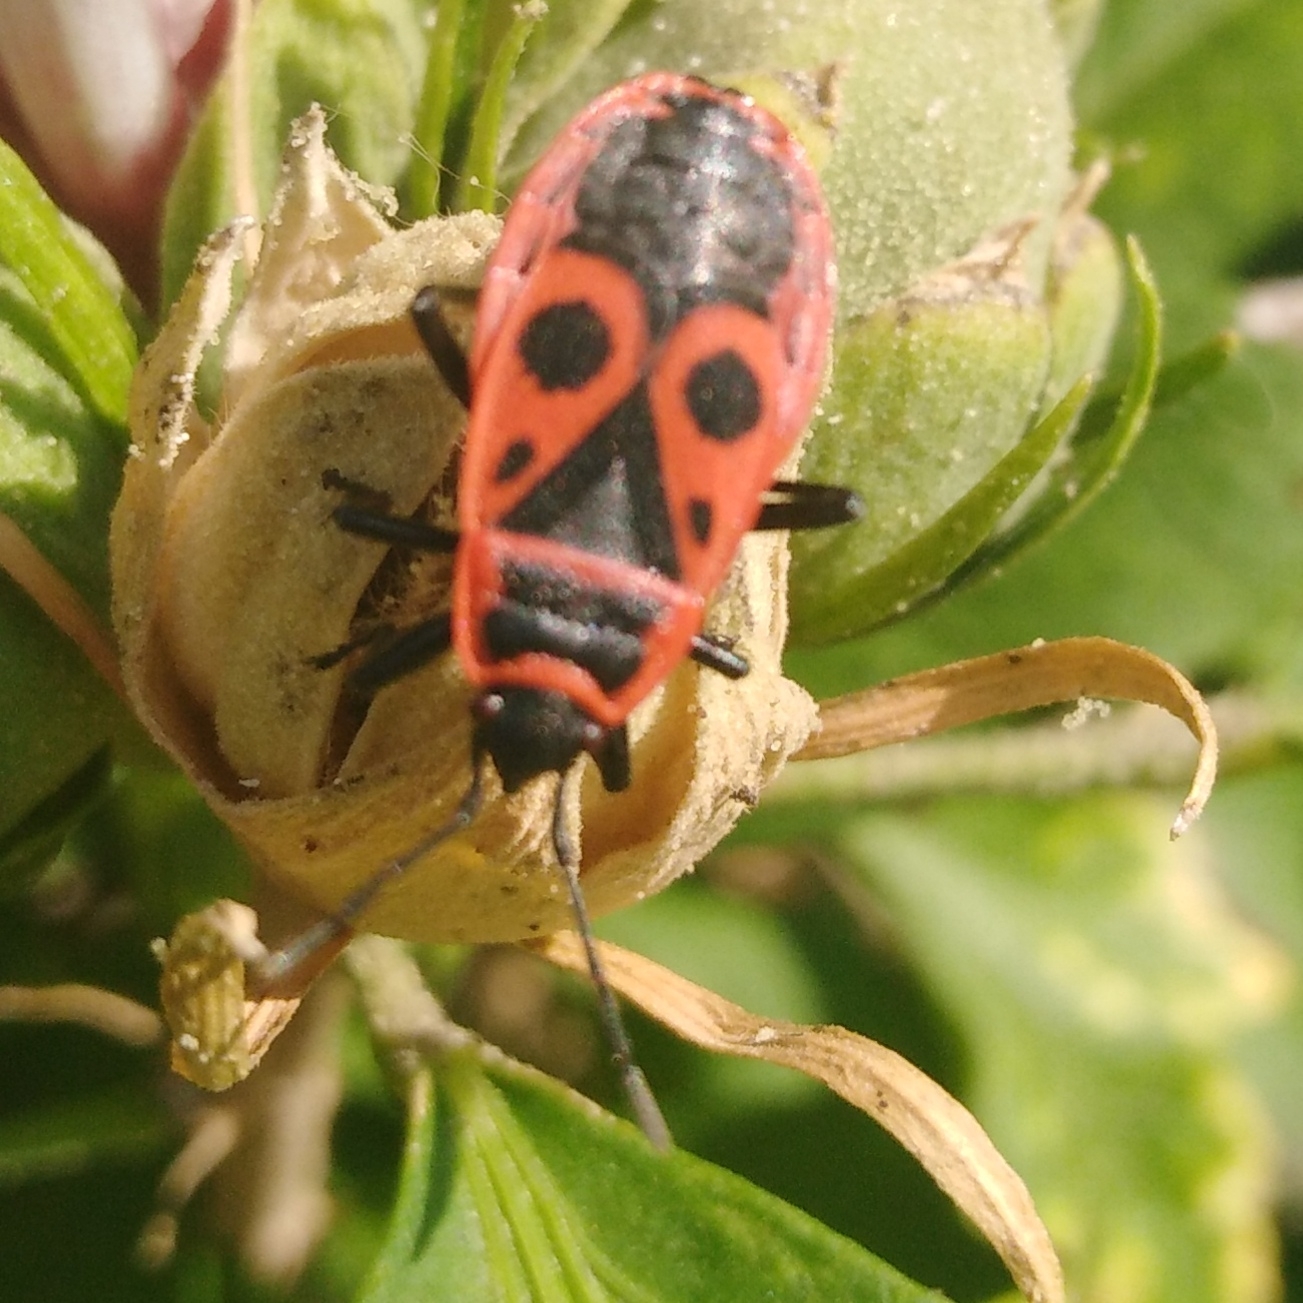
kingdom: Animalia
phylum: Arthropoda
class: Insecta
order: Hemiptera
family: Pyrrhocoridae
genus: Pyrrhocoris
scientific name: Pyrrhocoris apterus
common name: Firebug
